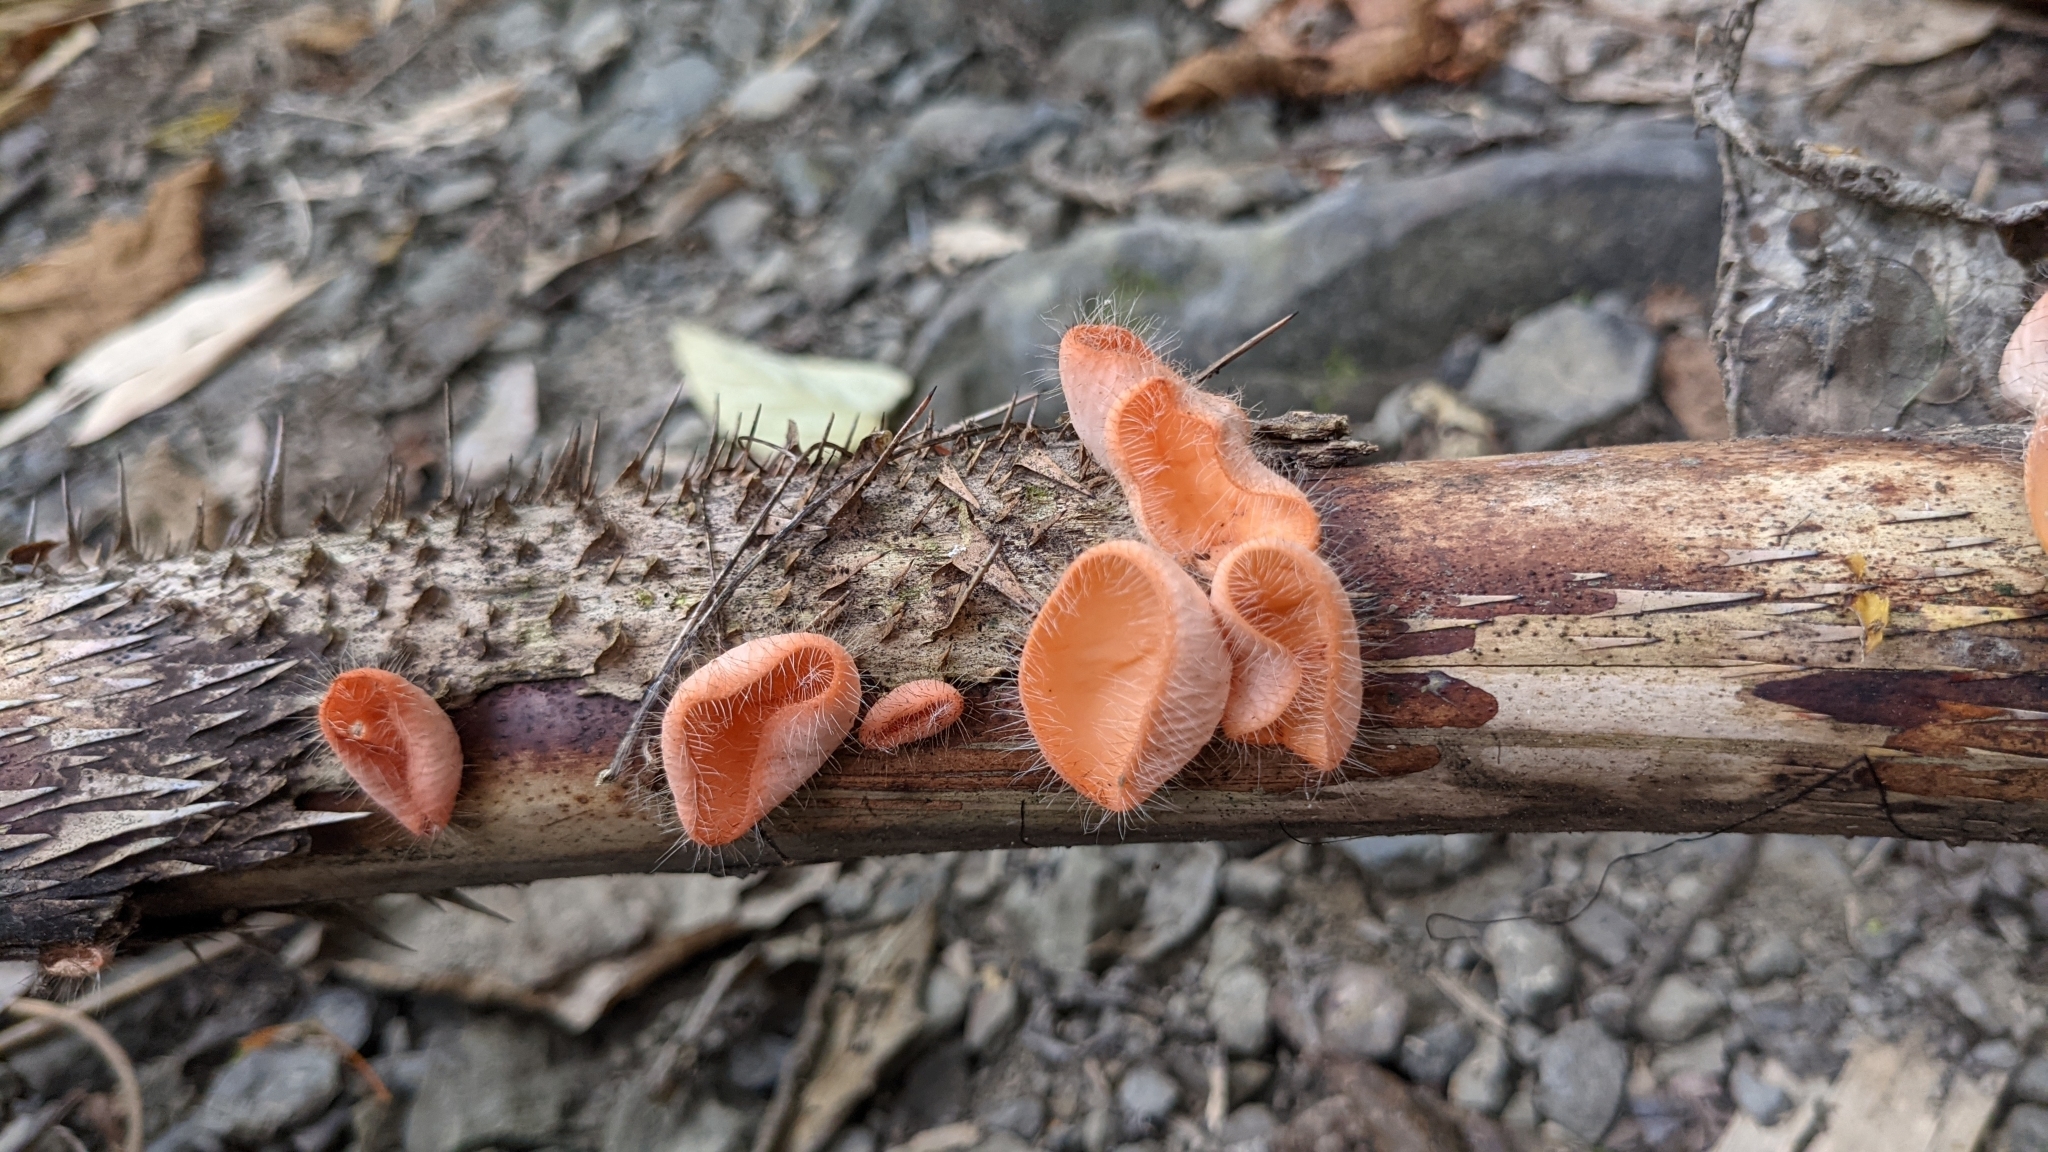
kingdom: Fungi
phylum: Ascomycota
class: Pezizomycetes
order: Pezizales
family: Sarcoscyphaceae
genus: Cookeina
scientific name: Cookeina tricholoma
